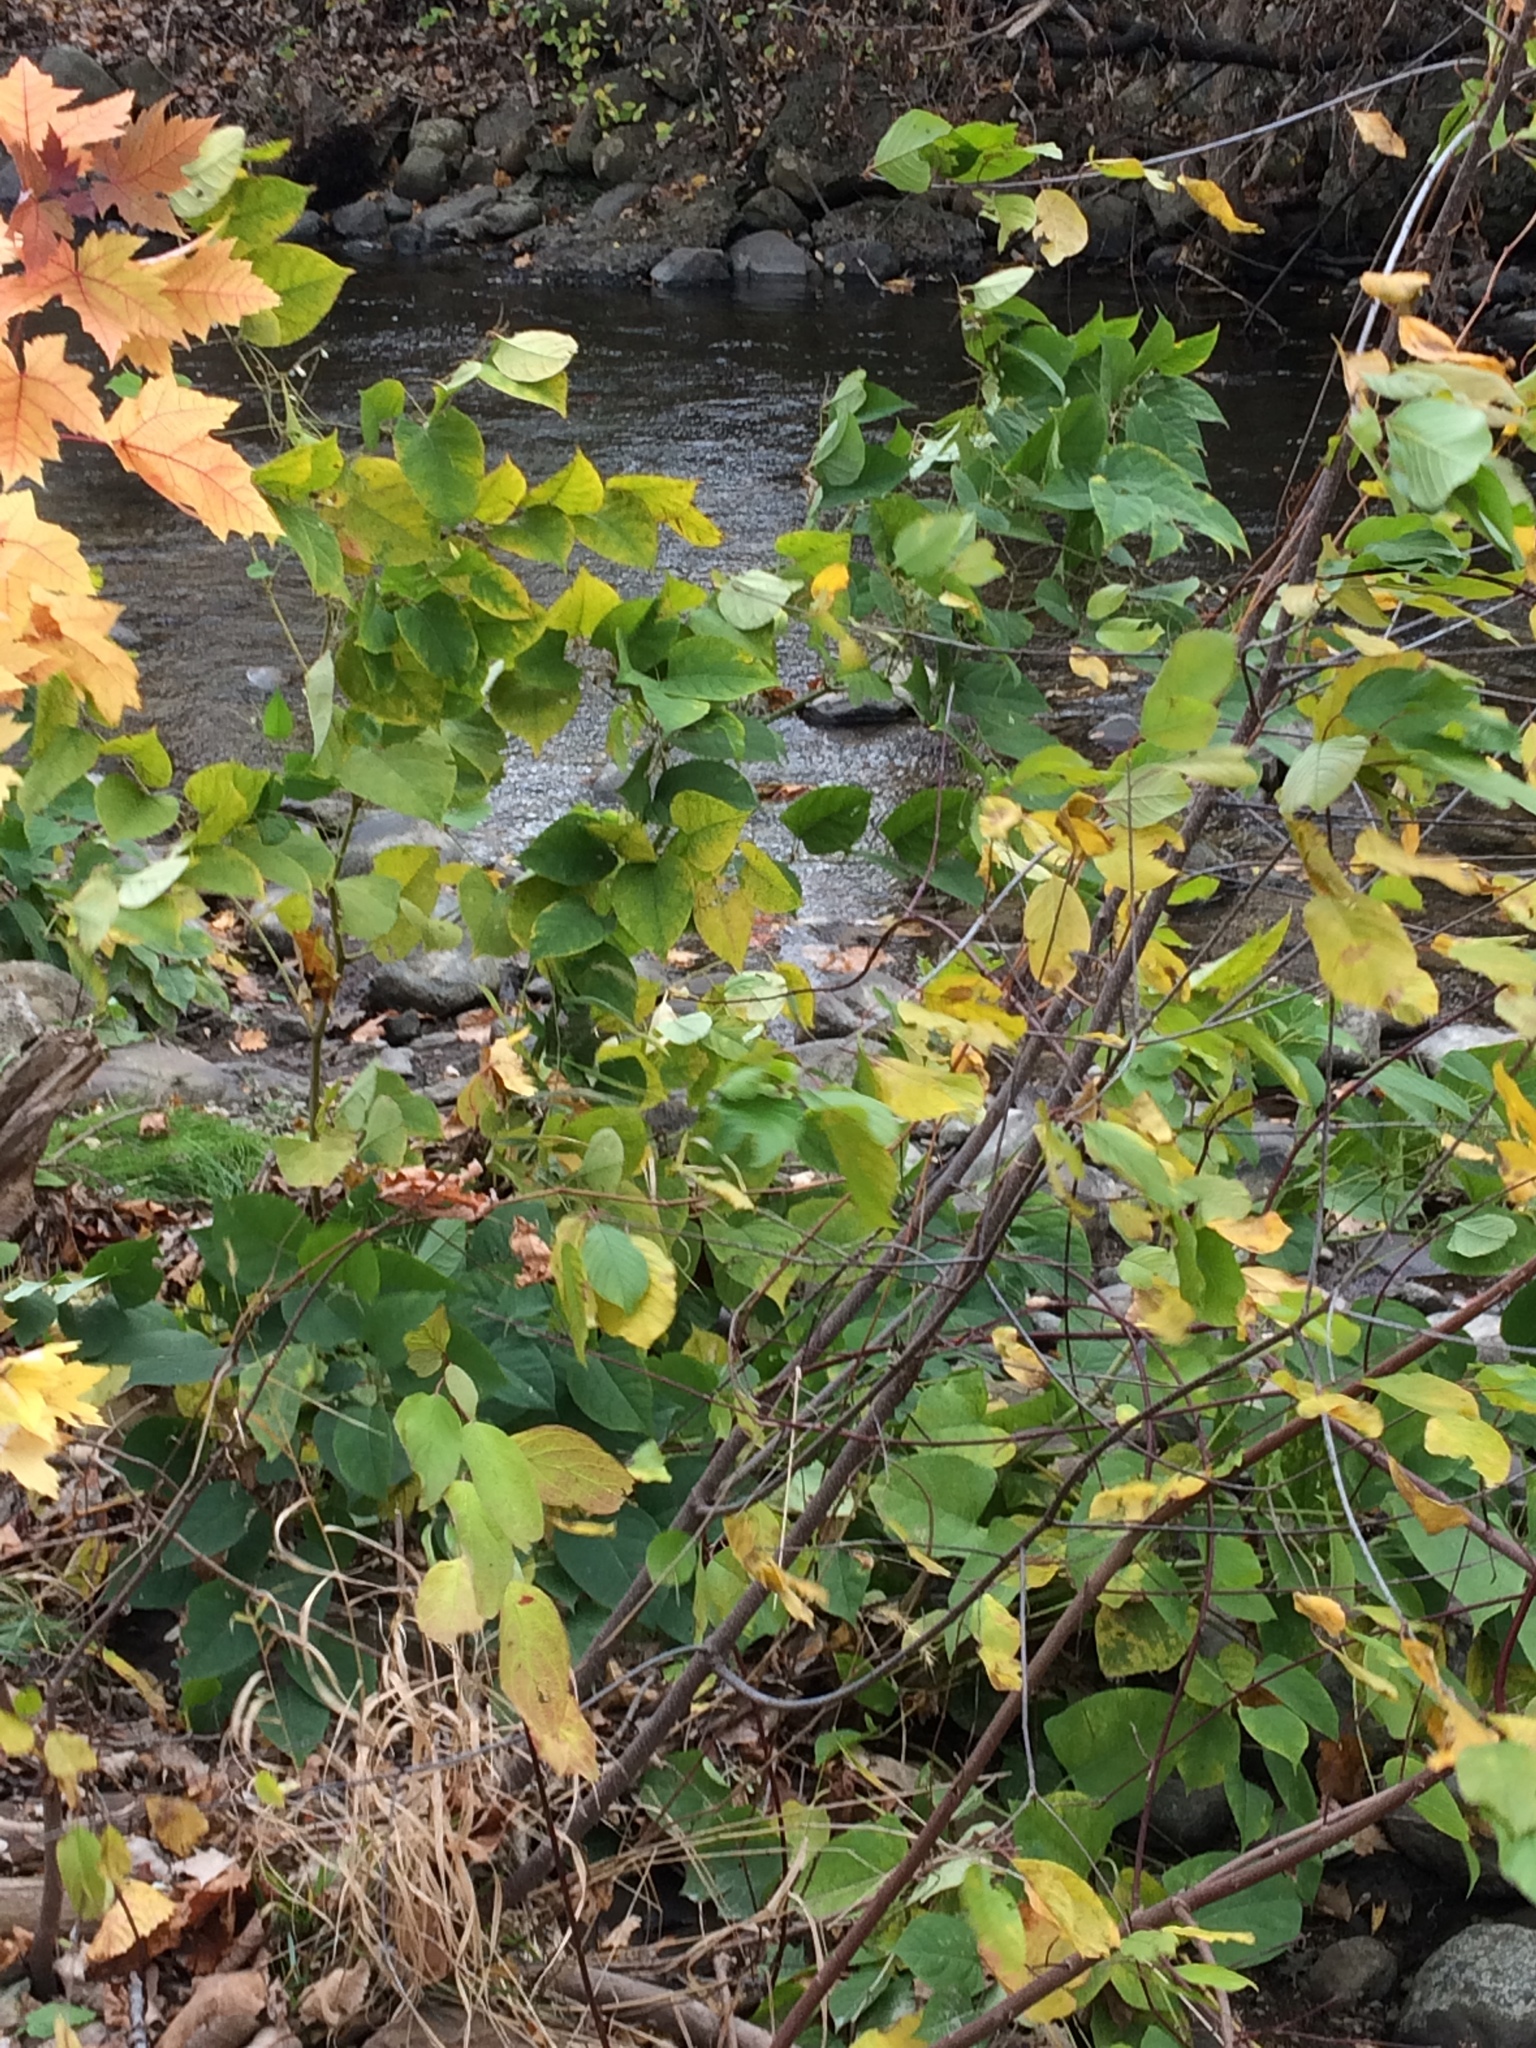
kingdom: Plantae
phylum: Tracheophyta
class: Magnoliopsida
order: Caryophyllales
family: Polygonaceae
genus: Reynoutria
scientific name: Reynoutria japonica
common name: Japanese knotweed
